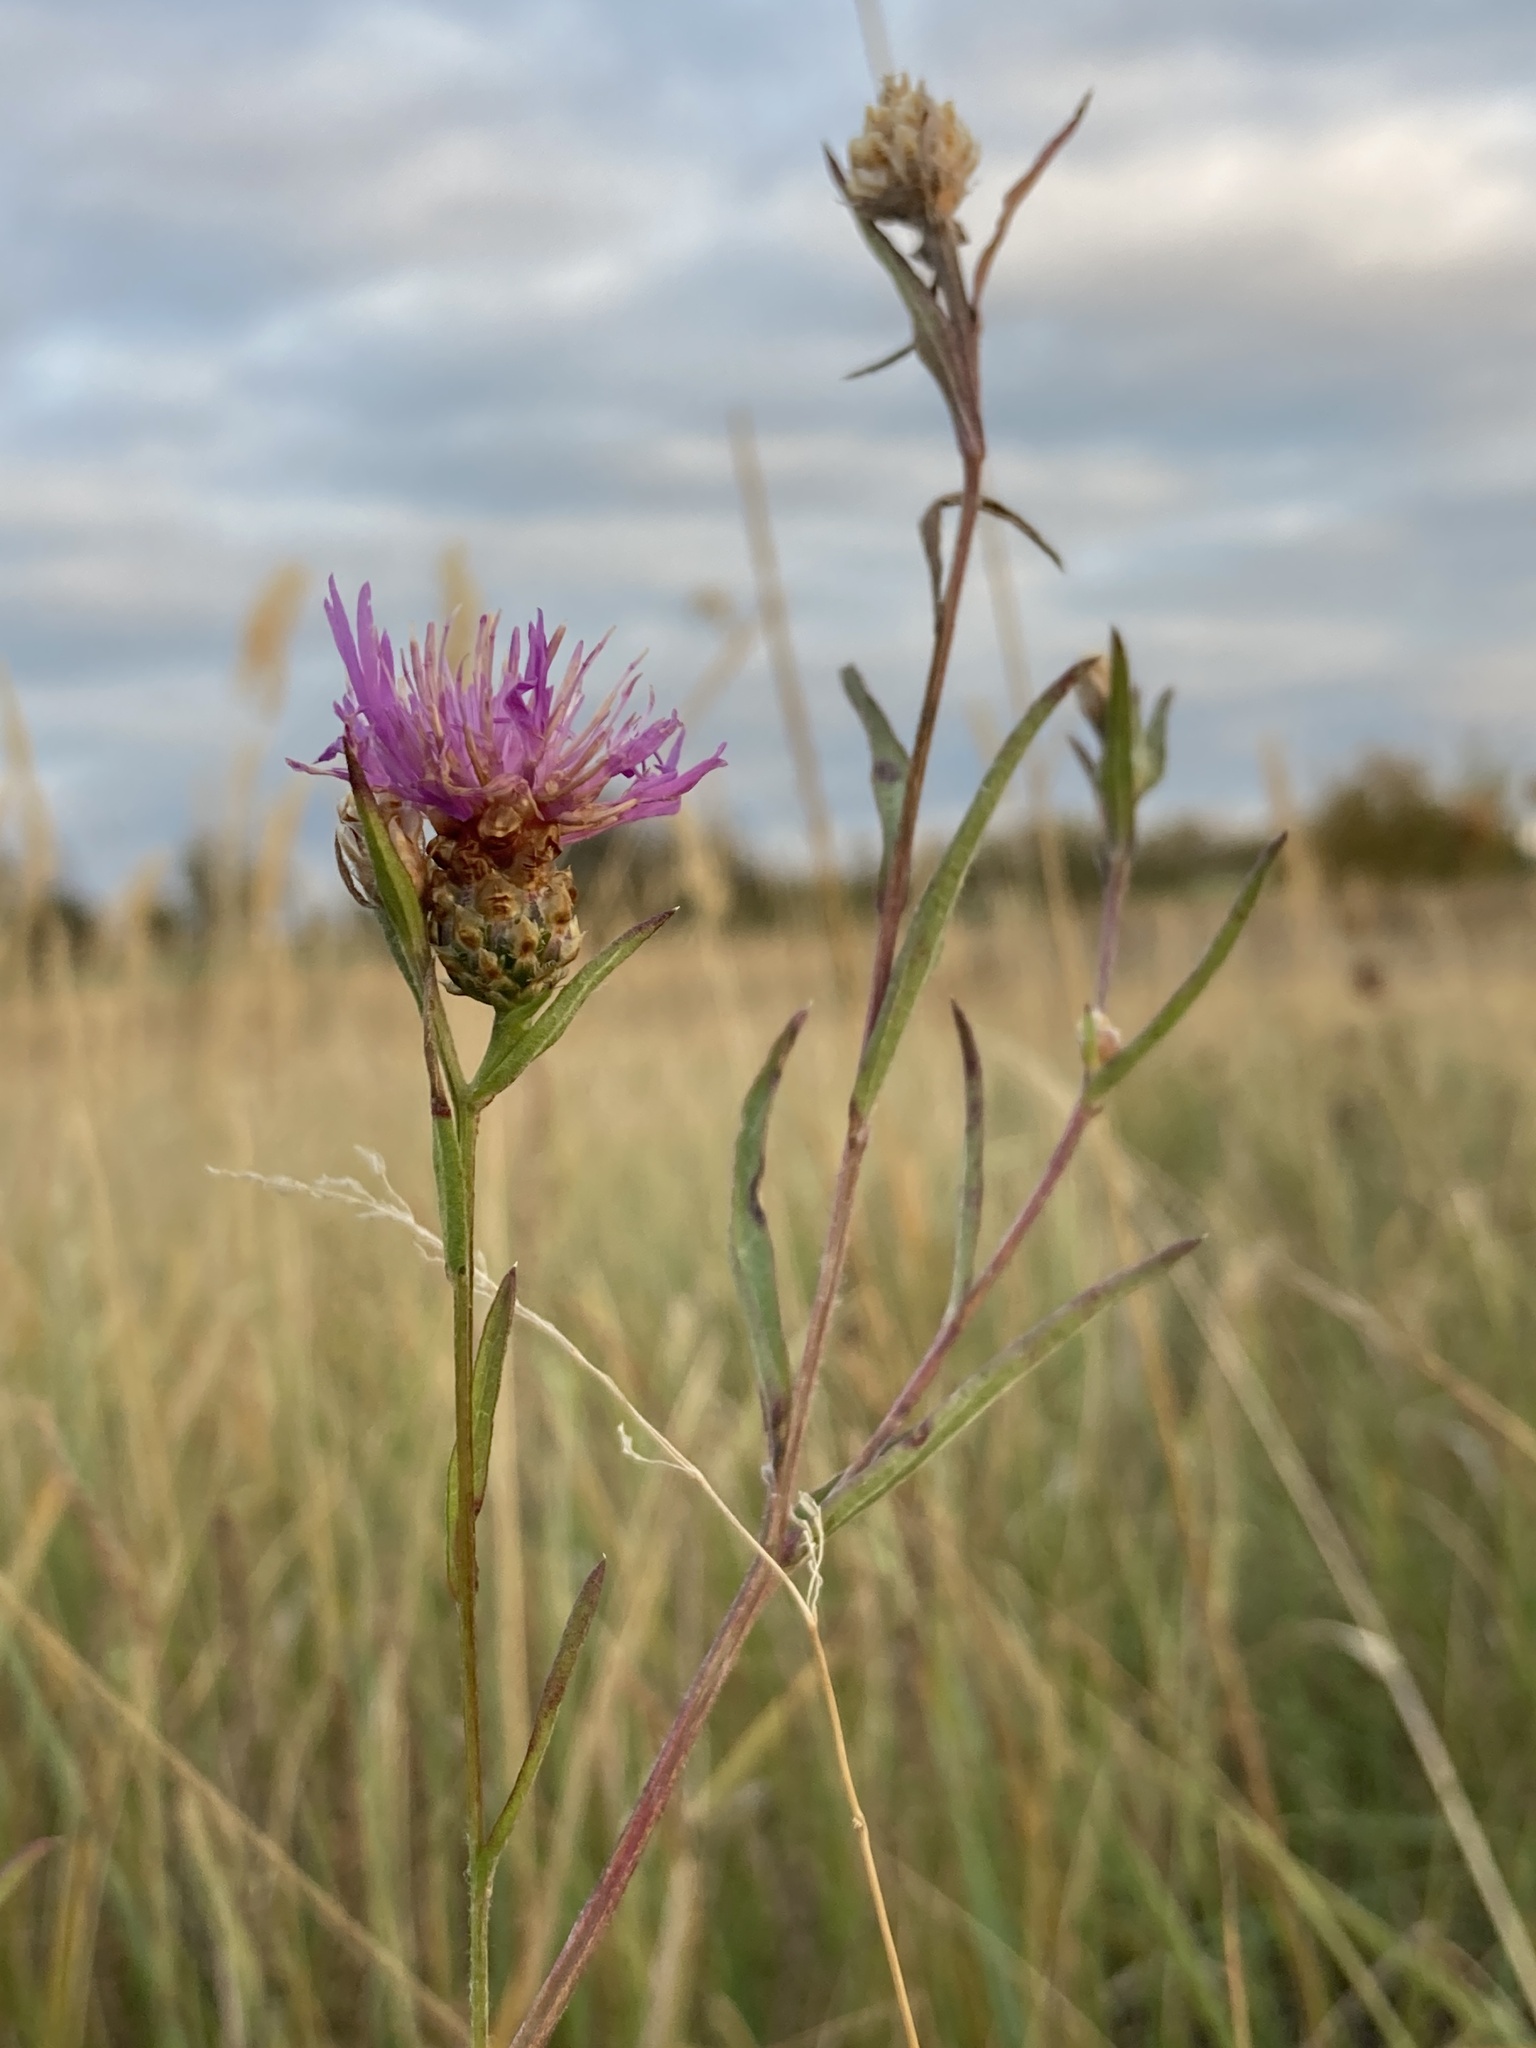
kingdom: Plantae
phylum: Tracheophyta
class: Magnoliopsida
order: Asterales
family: Asteraceae
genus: Centaurea
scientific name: Centaurea jacea
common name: Brown knapweed
